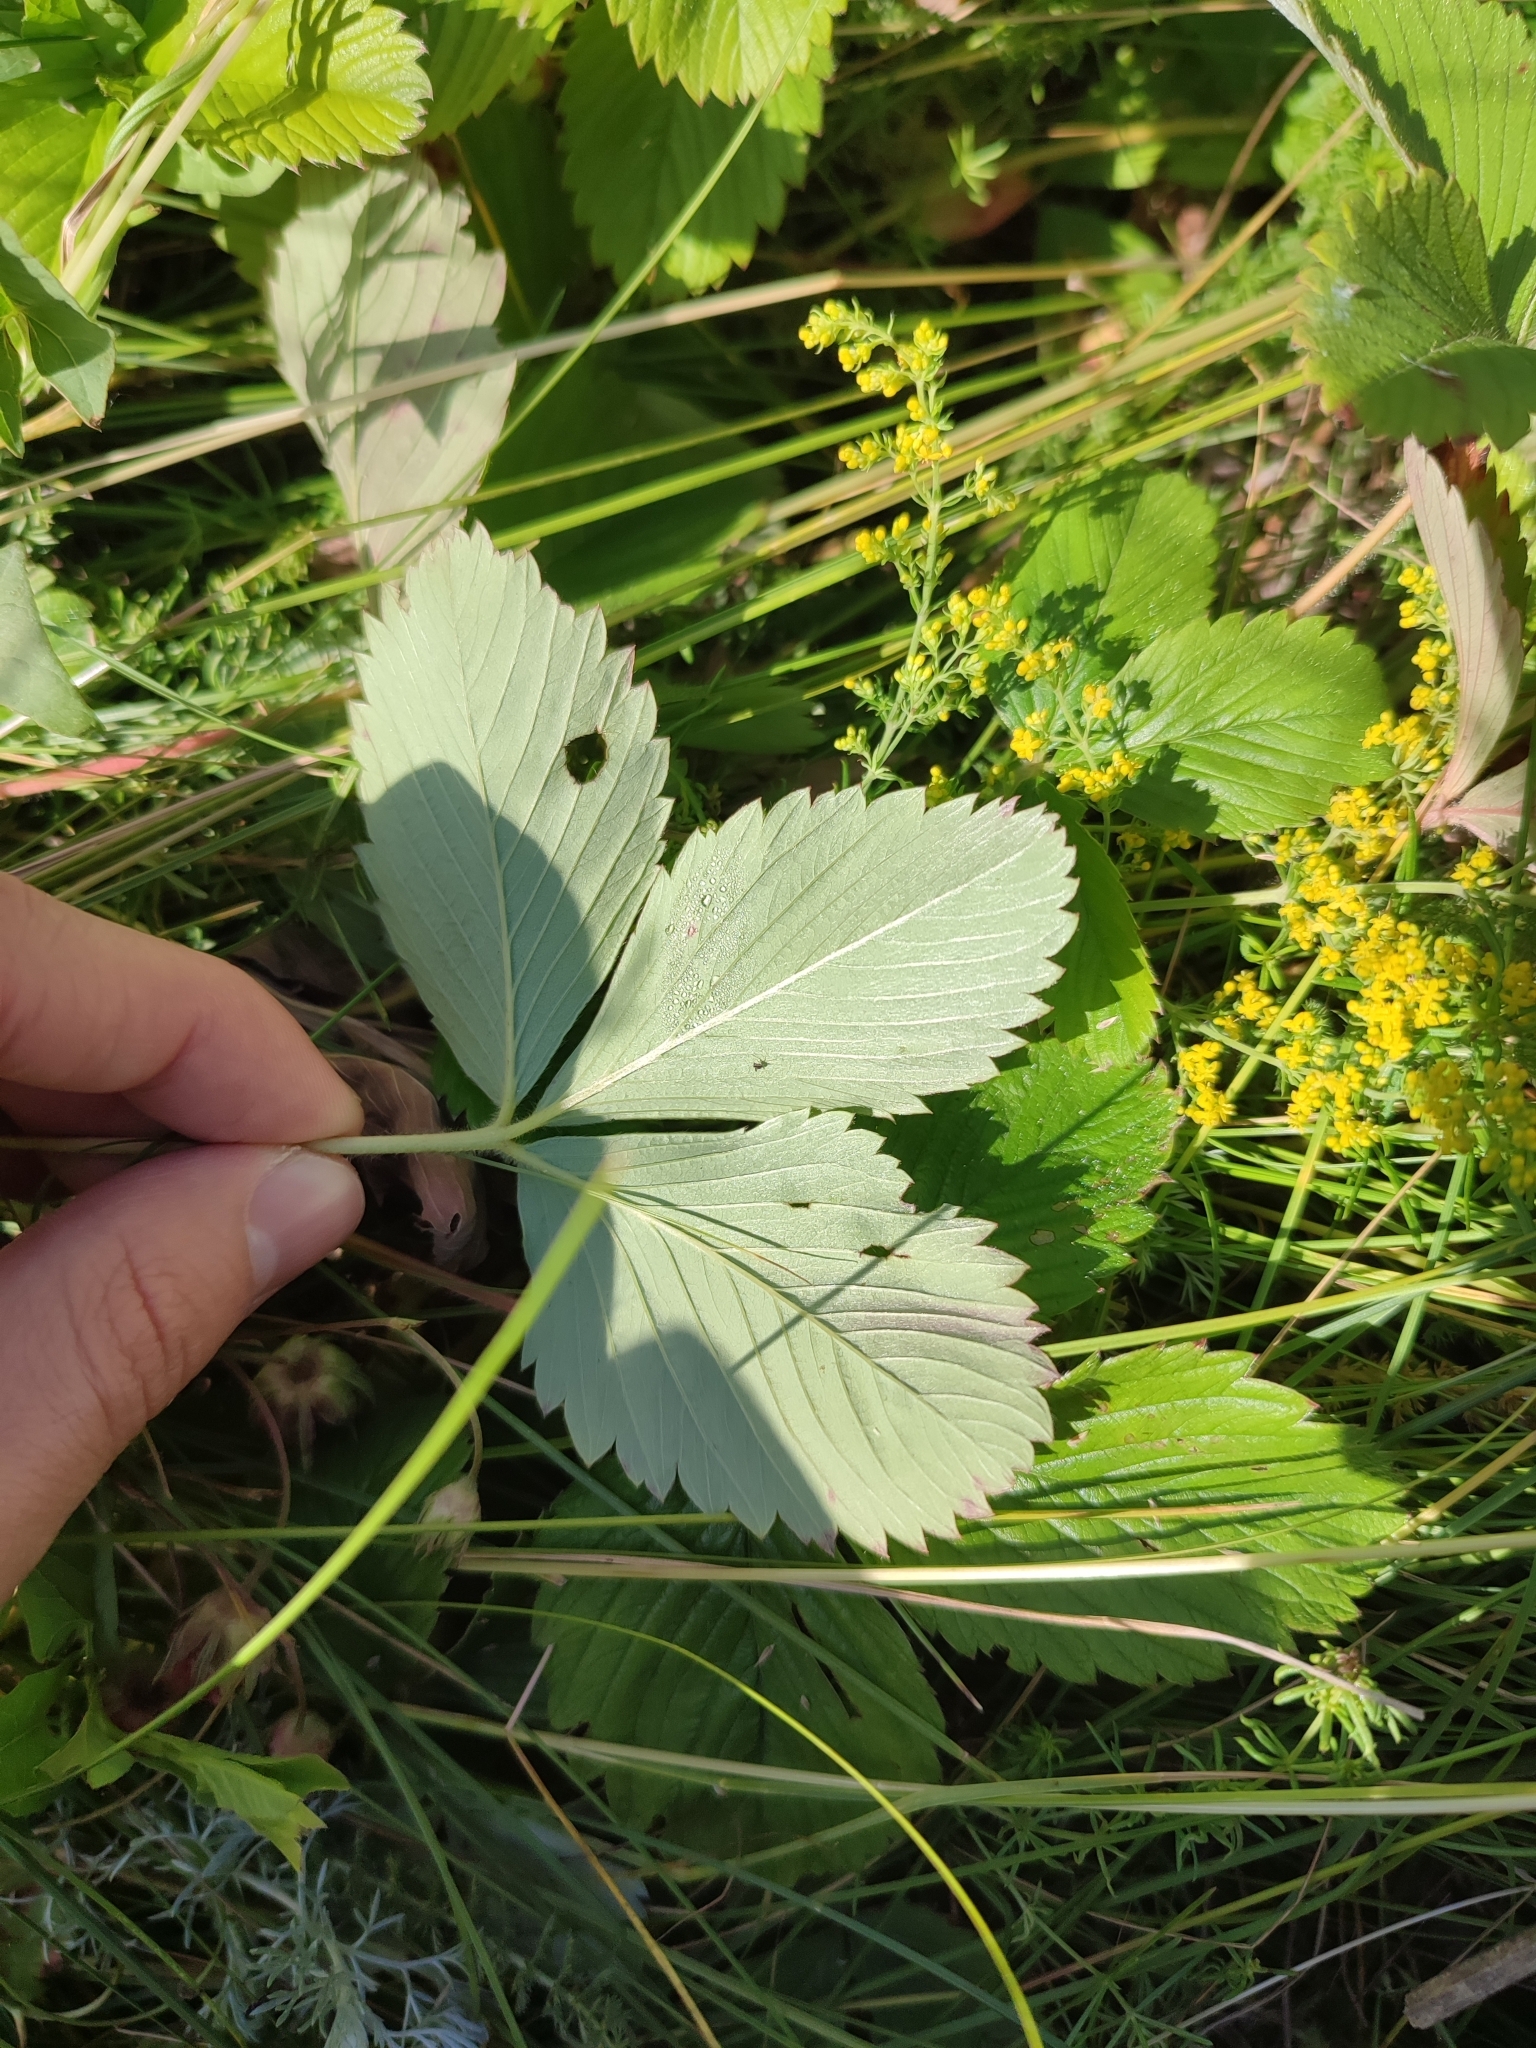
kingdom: Plantae
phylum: Tracheophyta
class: Magnoliopsida
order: Rosales
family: Rosaceae
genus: Fragaria
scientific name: Fragaria viridis
